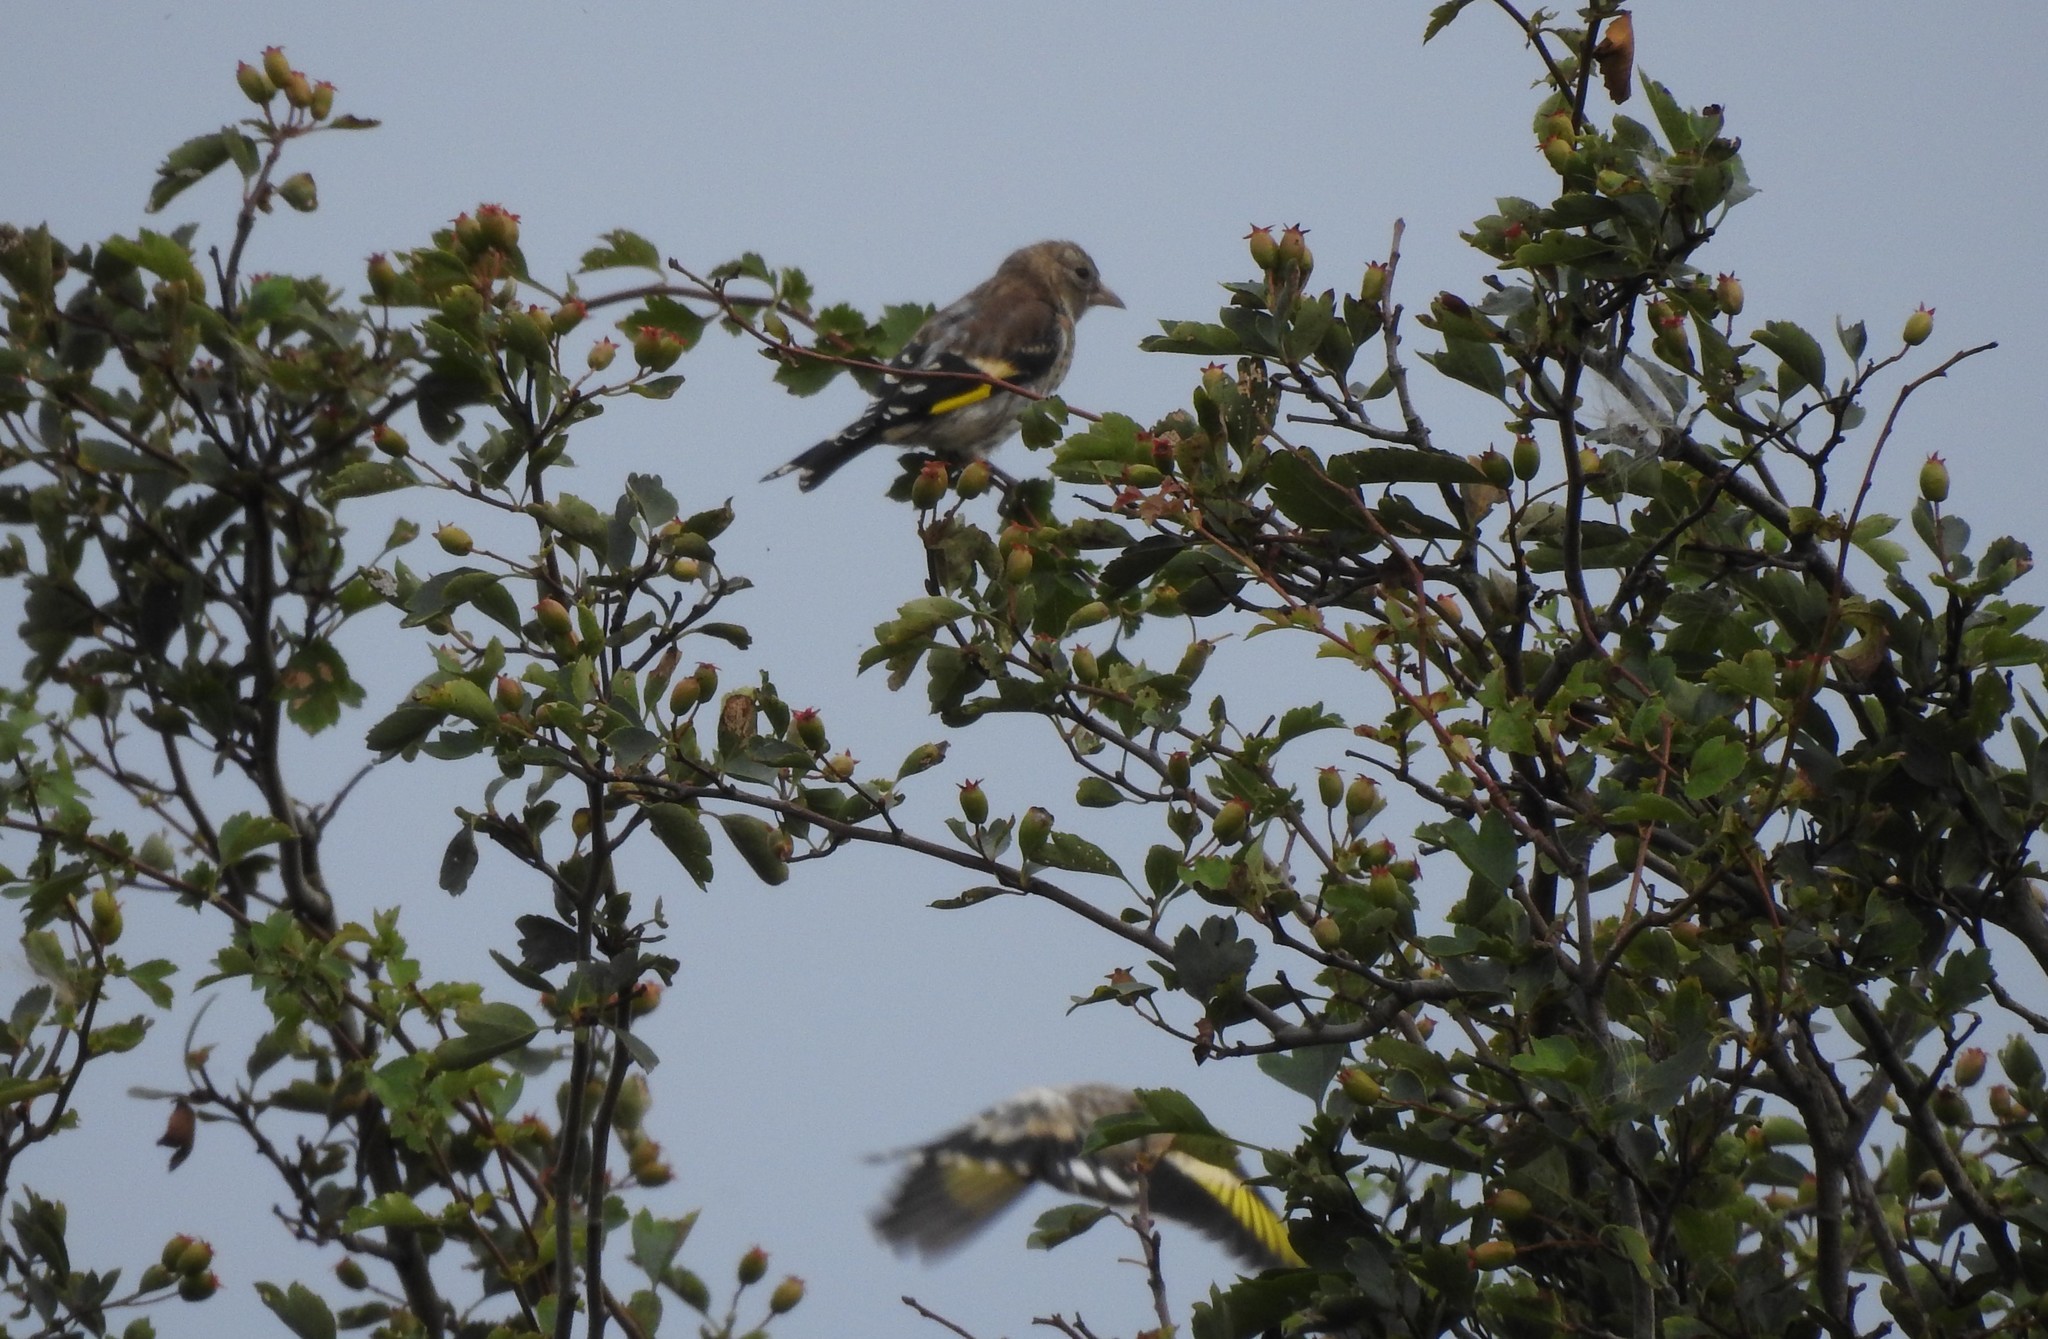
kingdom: Animalia
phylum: Chordata
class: Aves
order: Passeriformes
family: Fringillidae
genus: Carduelis
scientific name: Carduelis carduelis
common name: European goldfinch
